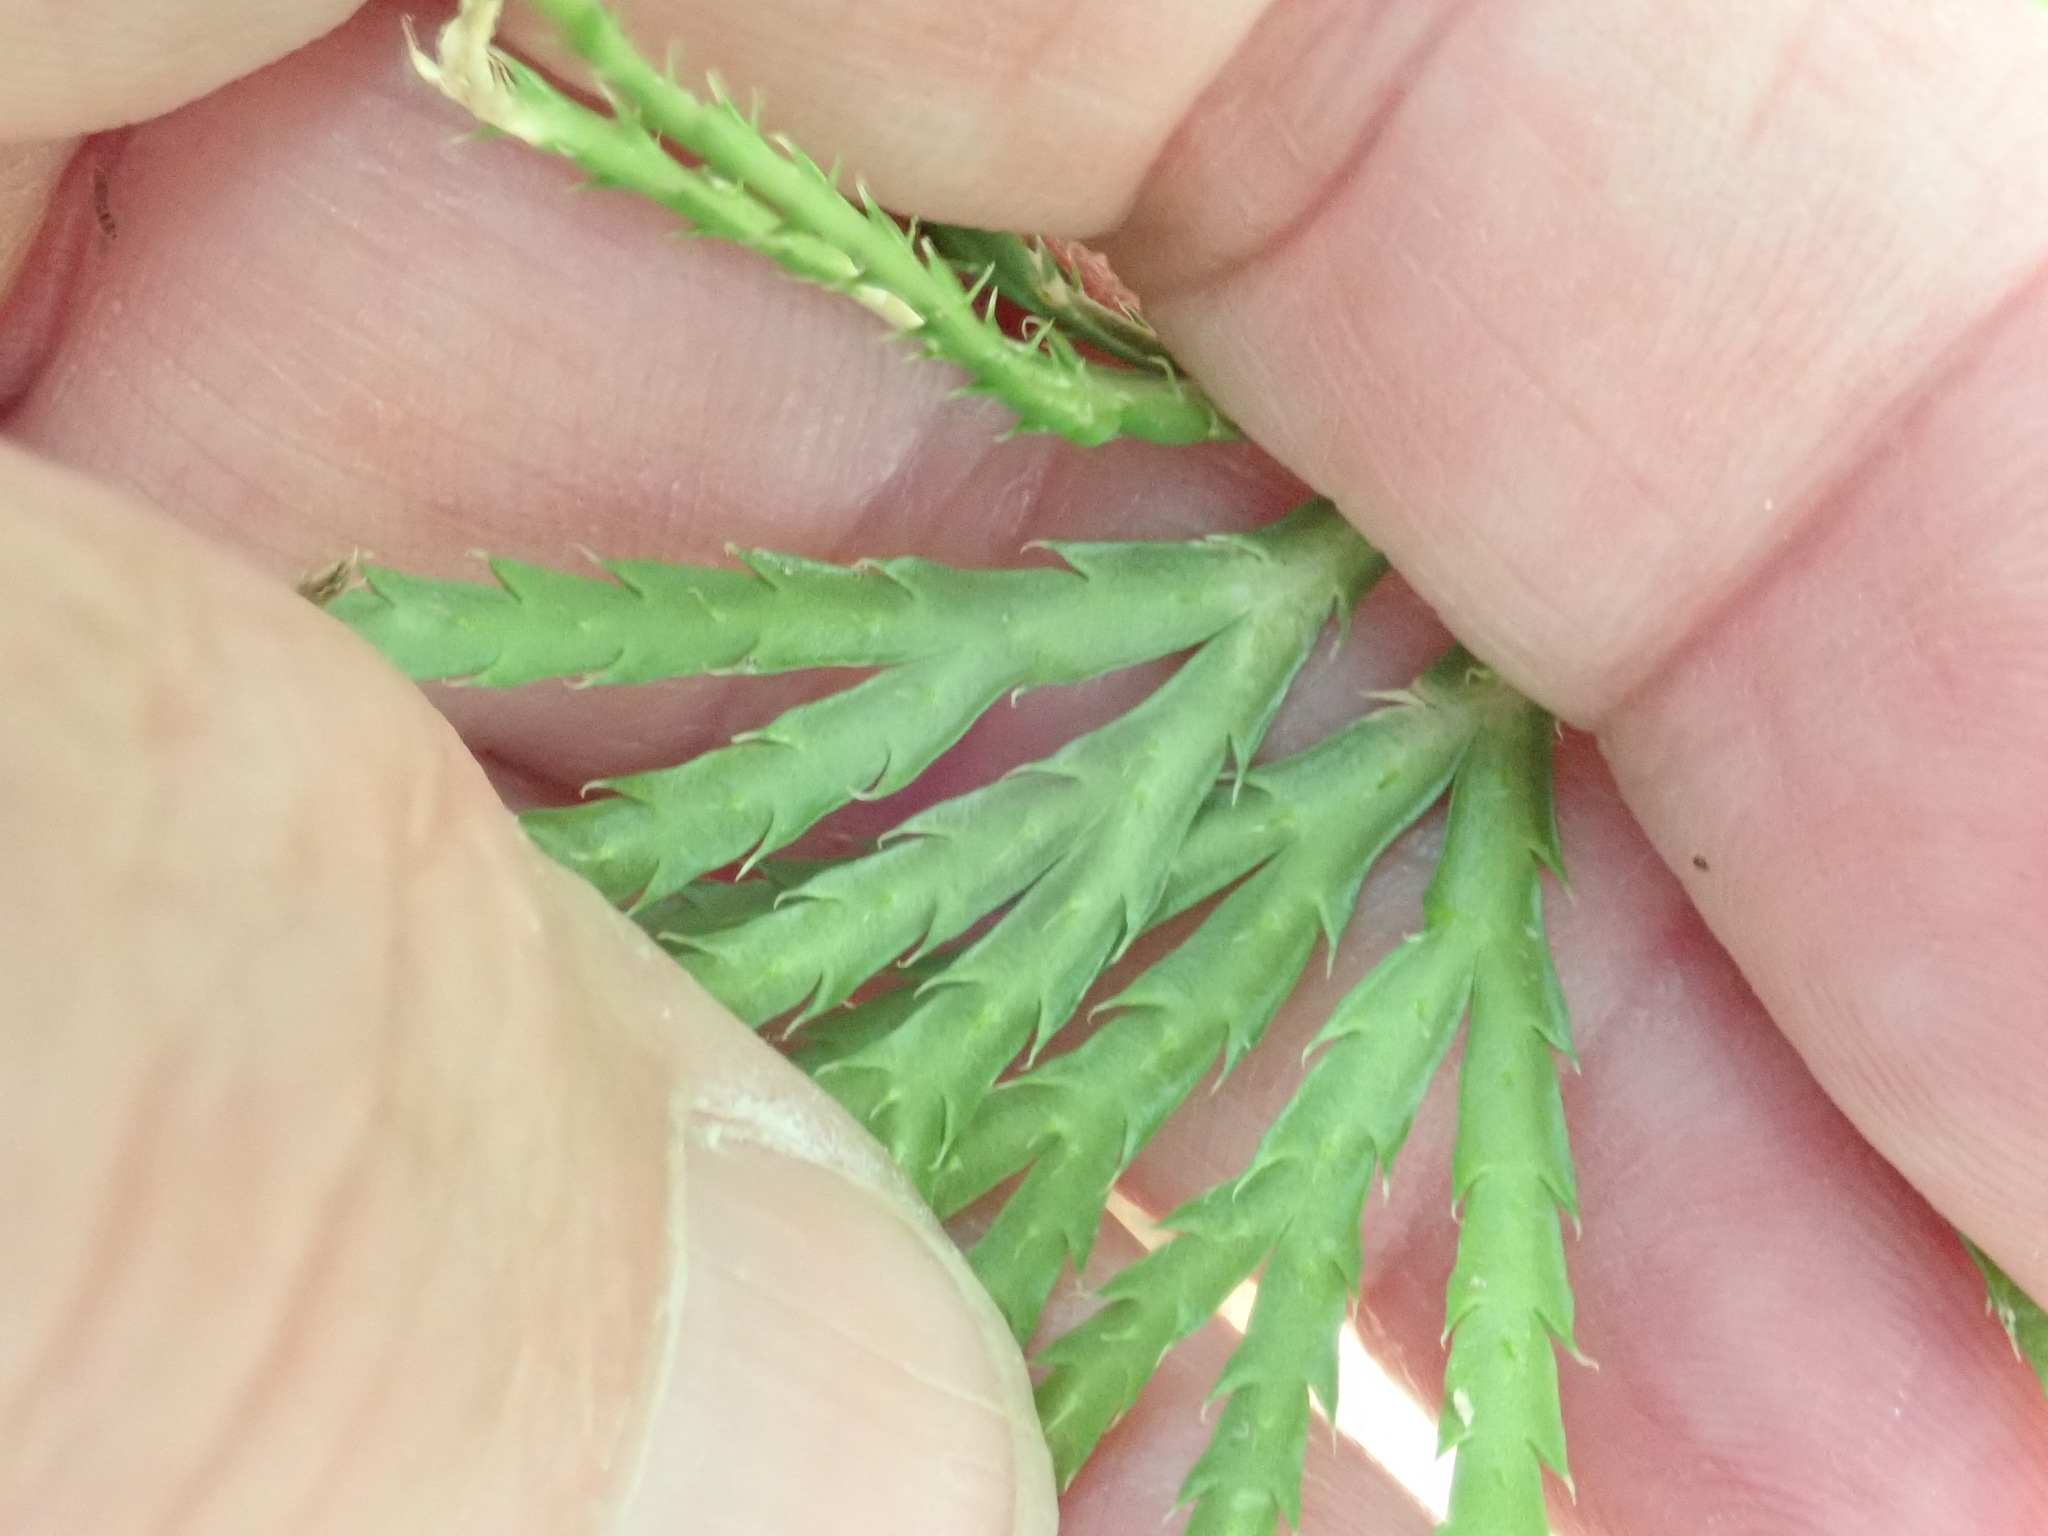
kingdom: Plantae
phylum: Tracheophyta
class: Lycopodiopsida
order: Lycopodiales
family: Lycopodiaceae
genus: Diphasiastrum
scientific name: Diphasiastrum digitatum
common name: Southern running-pine
